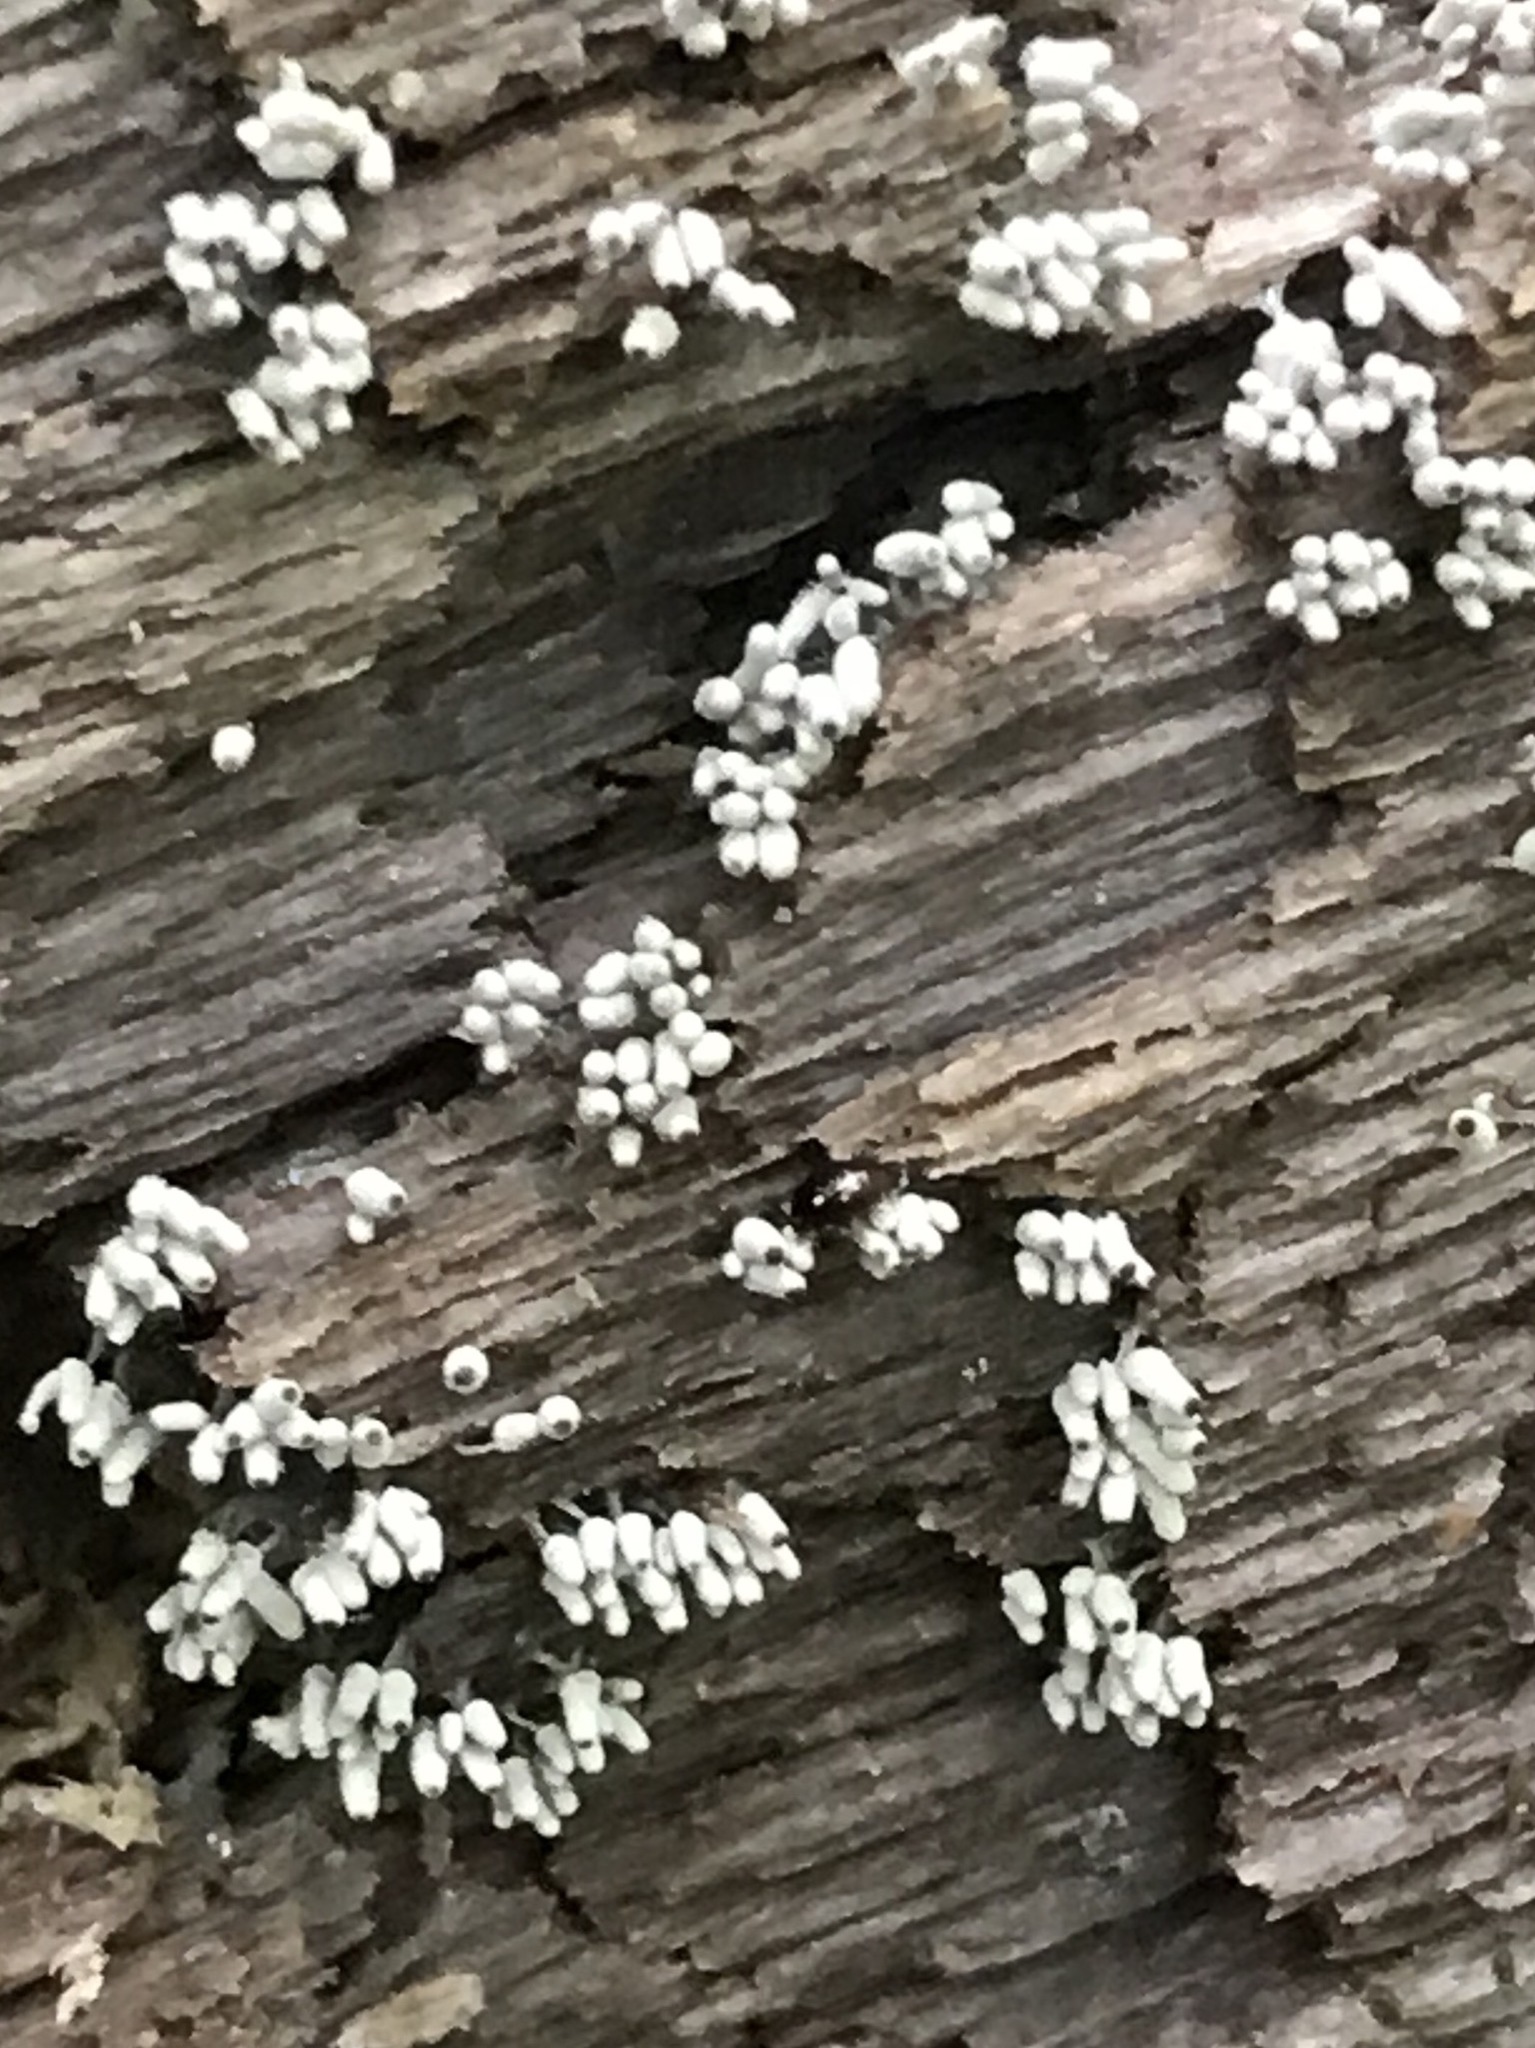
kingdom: Protozoa
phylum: Mycetozoa
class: Myxomycetes
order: Trichiales
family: Arcyriaceae
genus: Arcyria
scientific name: Arcyria cinerea
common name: White carnival candy slime mold
